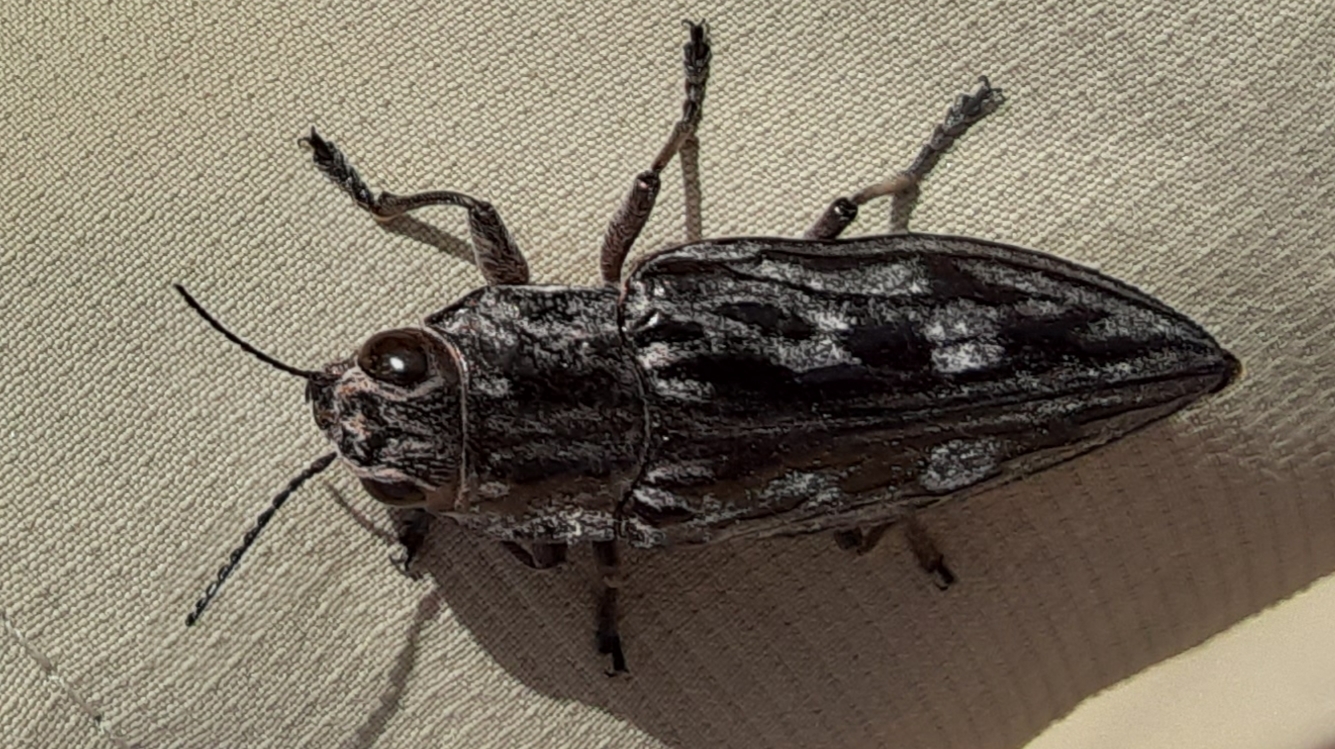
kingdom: Animalia
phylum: Arthropoda
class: Insecta
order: Coleoptera
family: Buprestidae
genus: Chalcophora
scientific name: Chalcophora virginiensis
